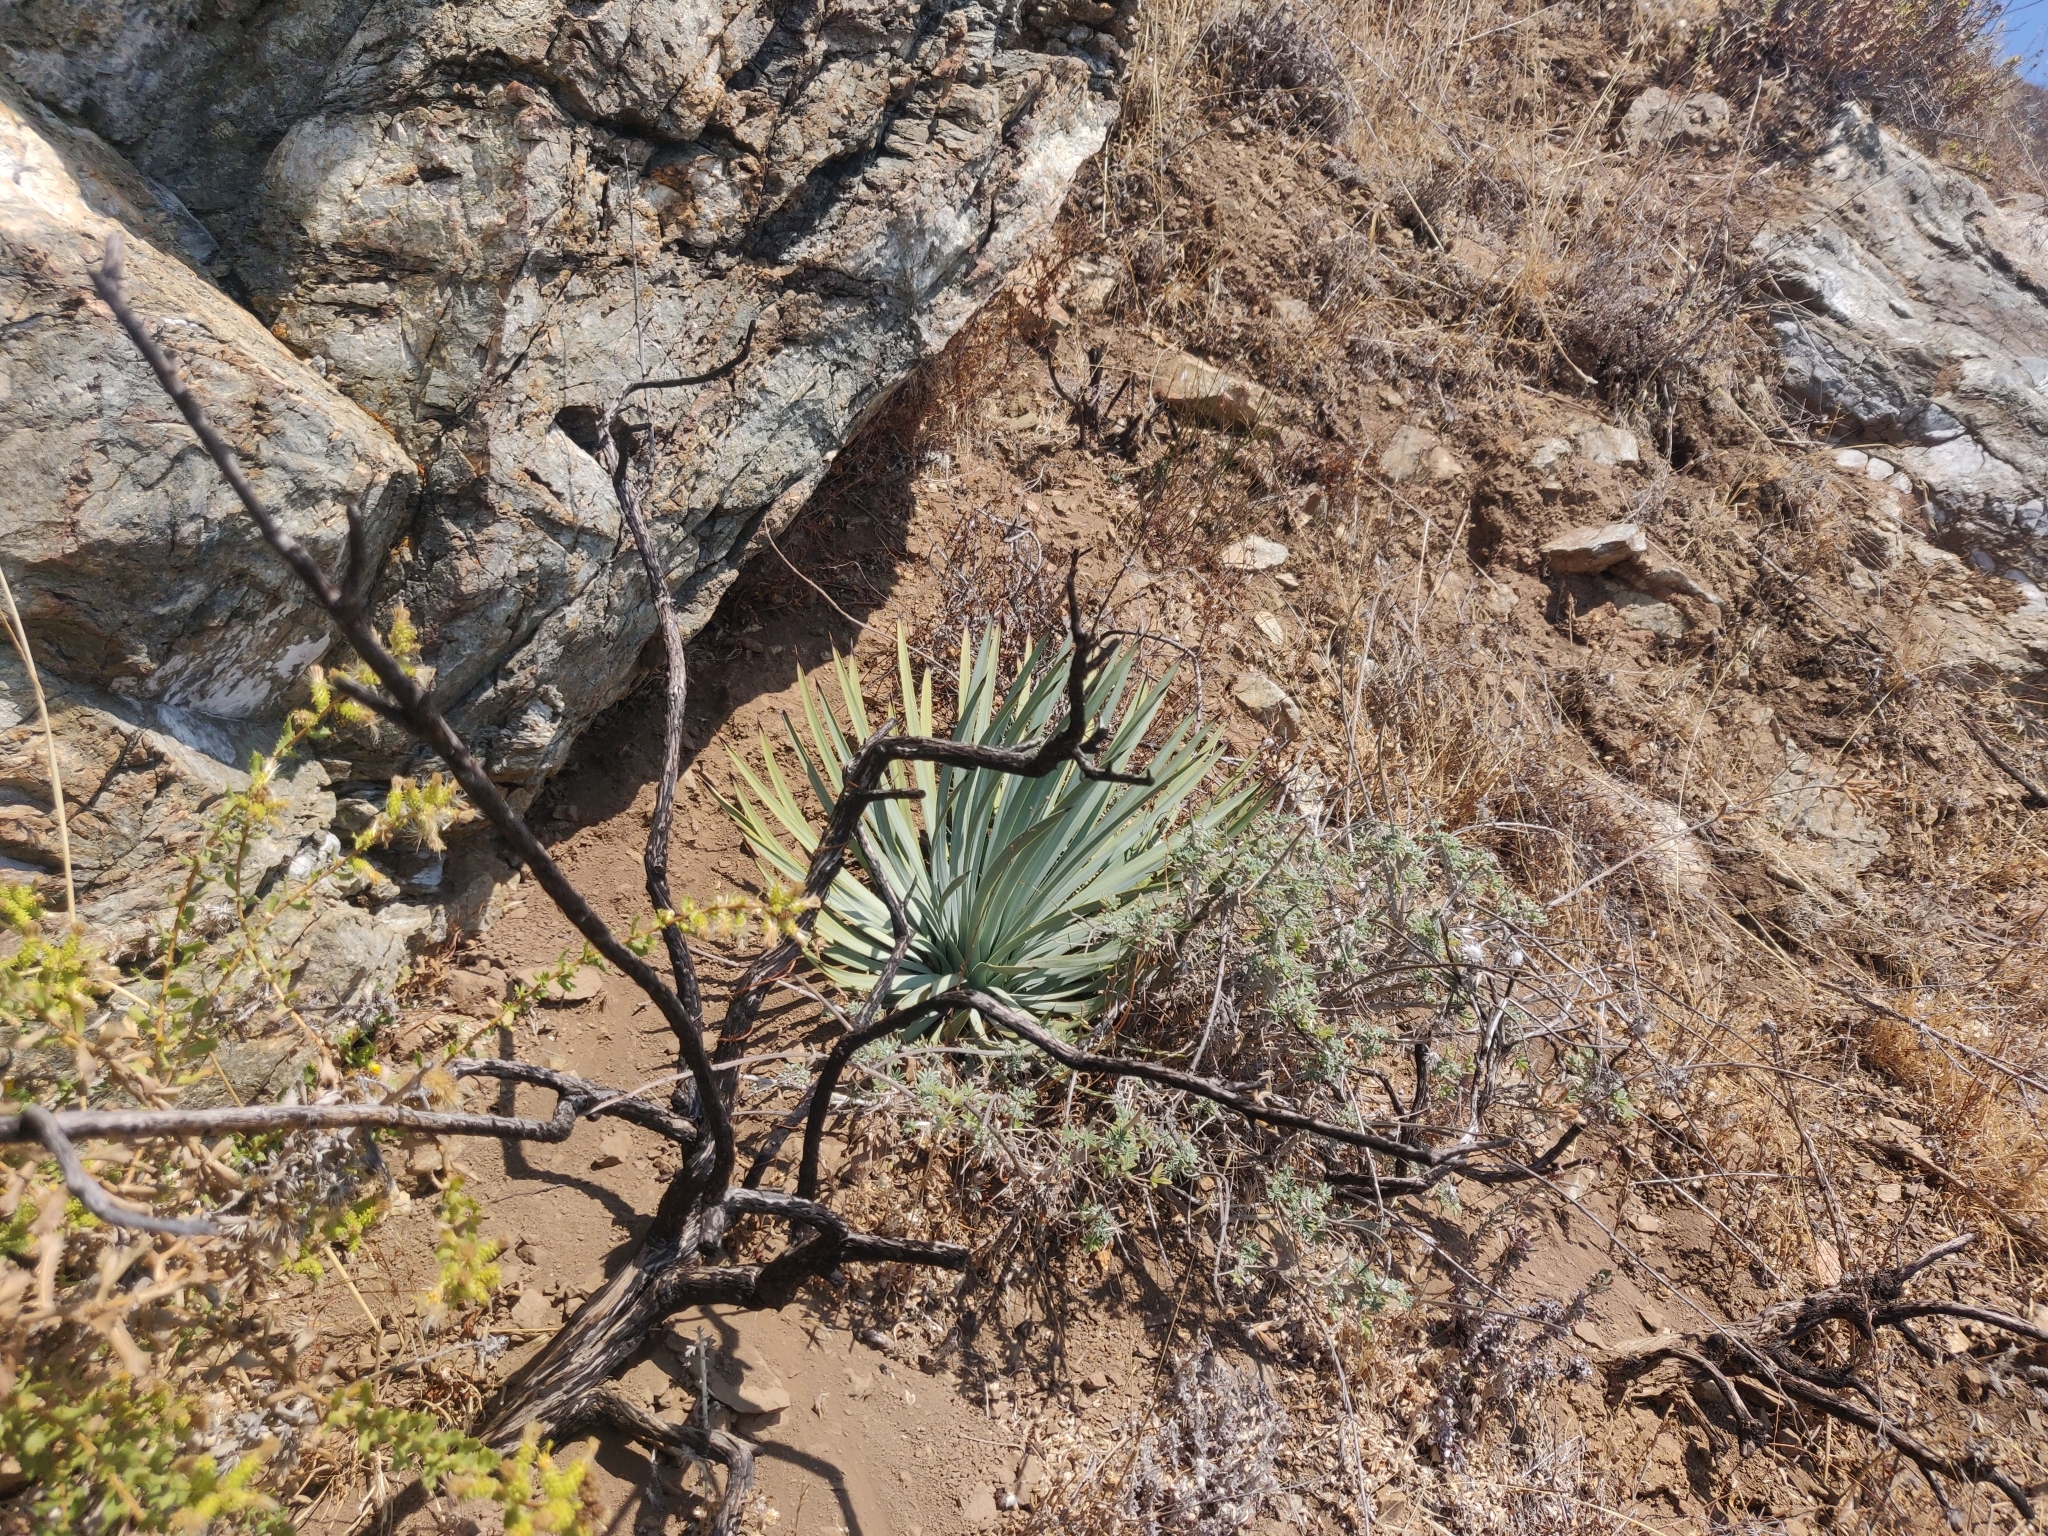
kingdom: Plantae
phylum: Tracheophyta
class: Liliopsida
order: Asparagales
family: Asparagaceae
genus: Hesperoyucca
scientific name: Hesperoyucca whipplei
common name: Our lord's-candle
